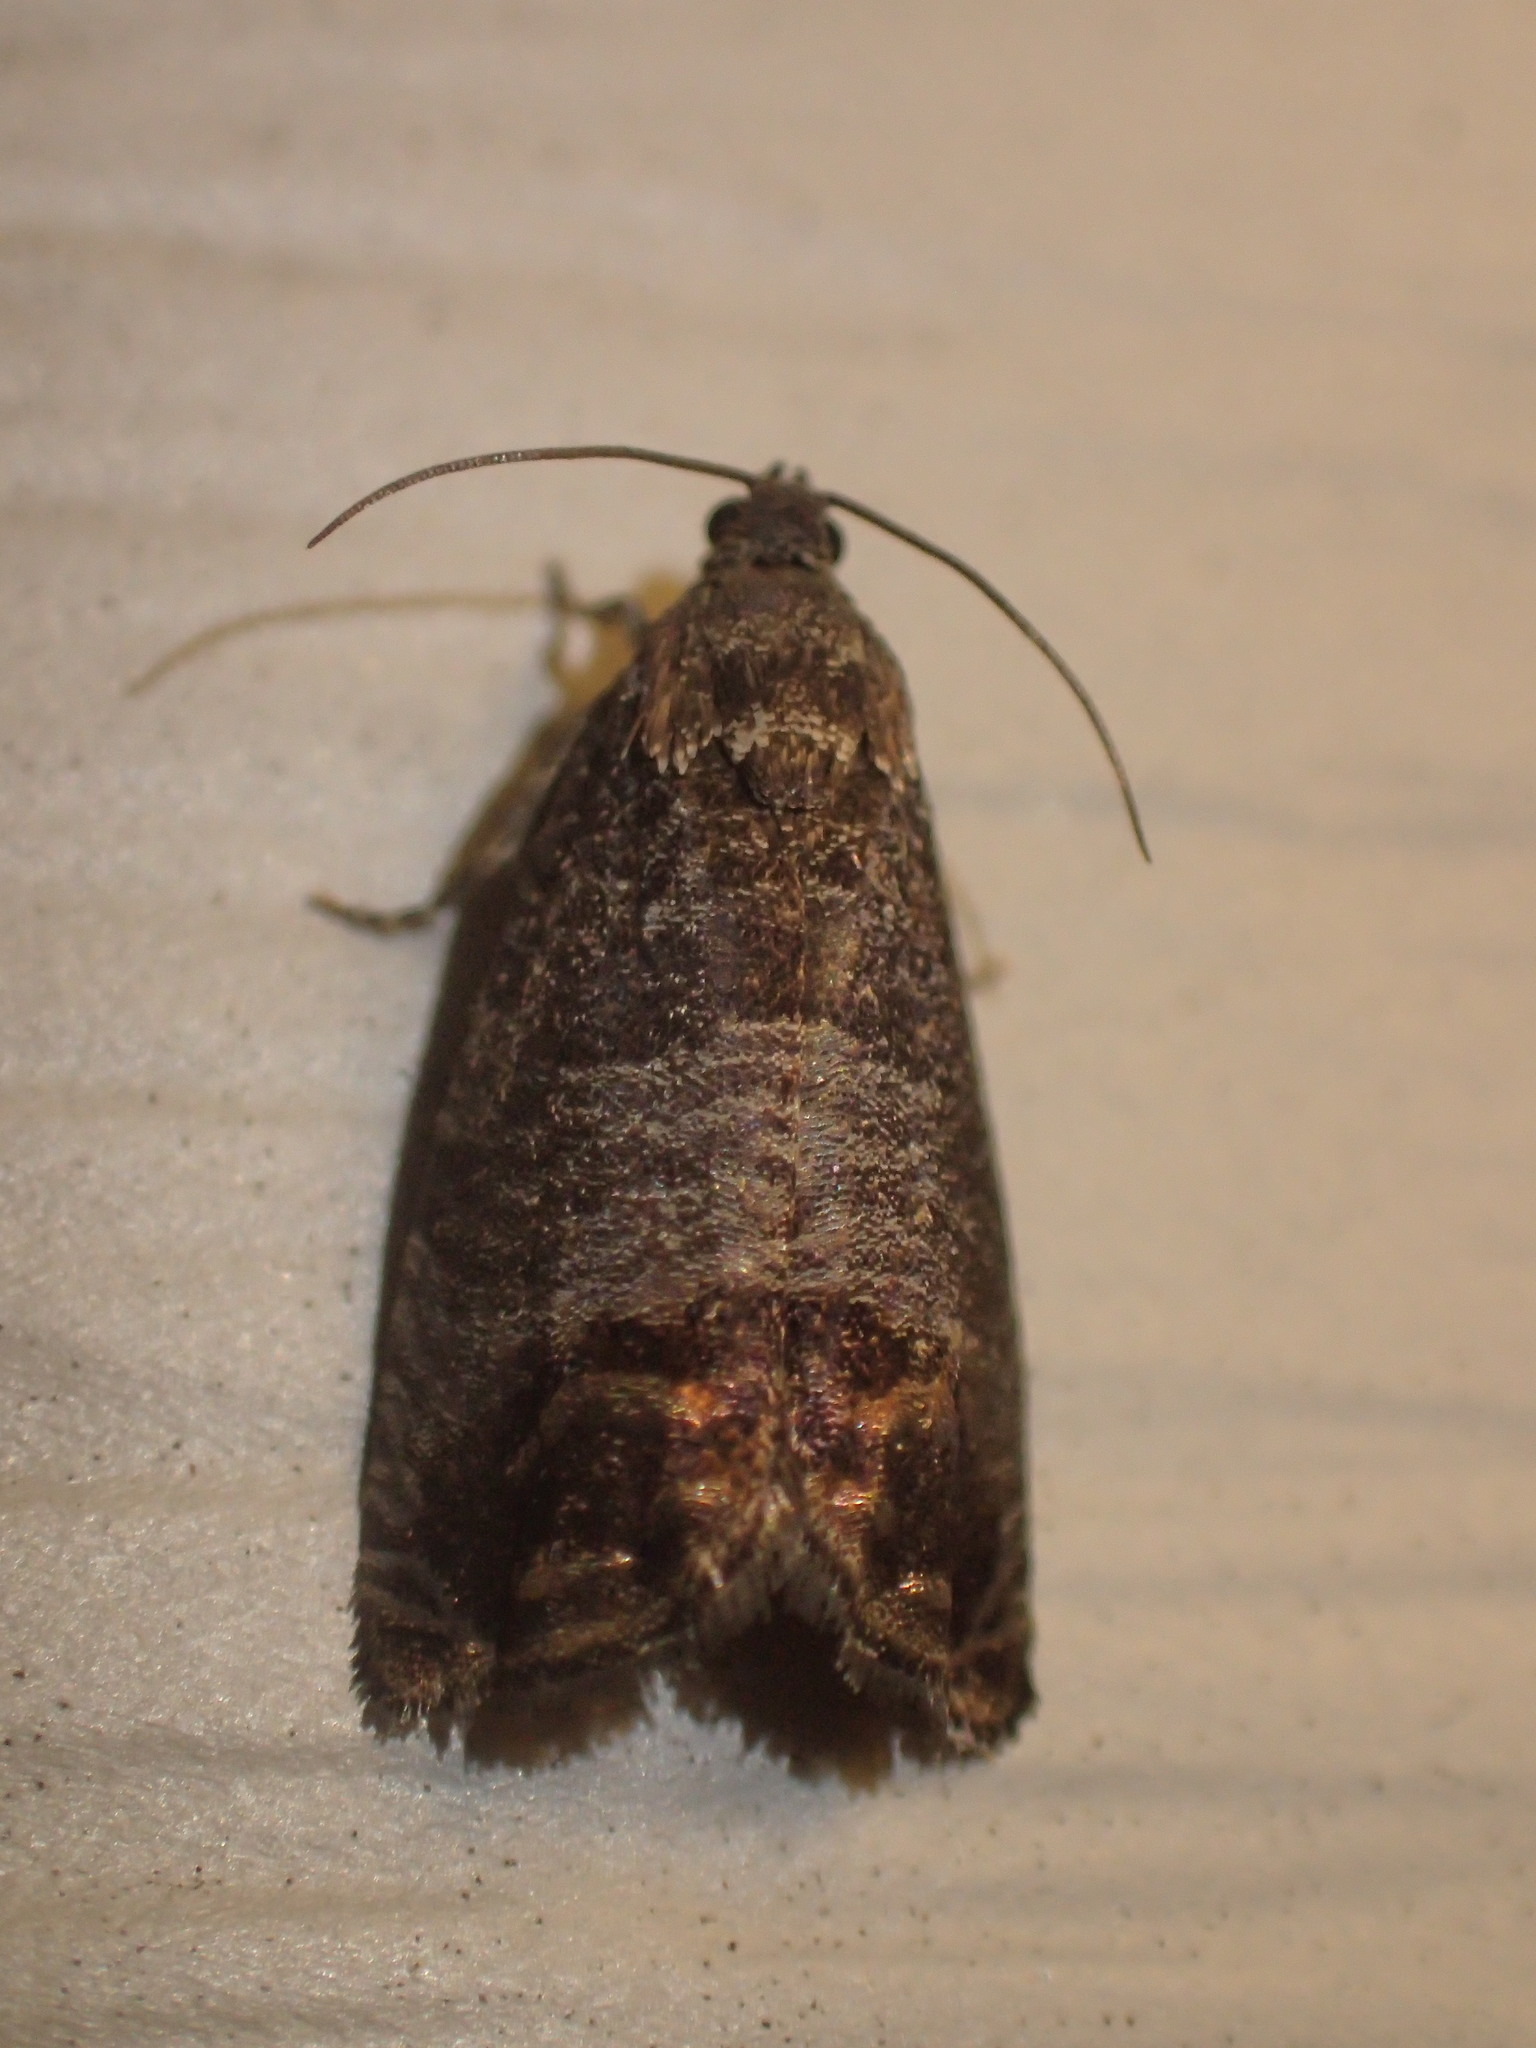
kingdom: Animalia
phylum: Arthropoda
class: Insecta
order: Lepidoptera
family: Tortricidae
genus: Cydia
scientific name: Cydia pomonella
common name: Codling moth
